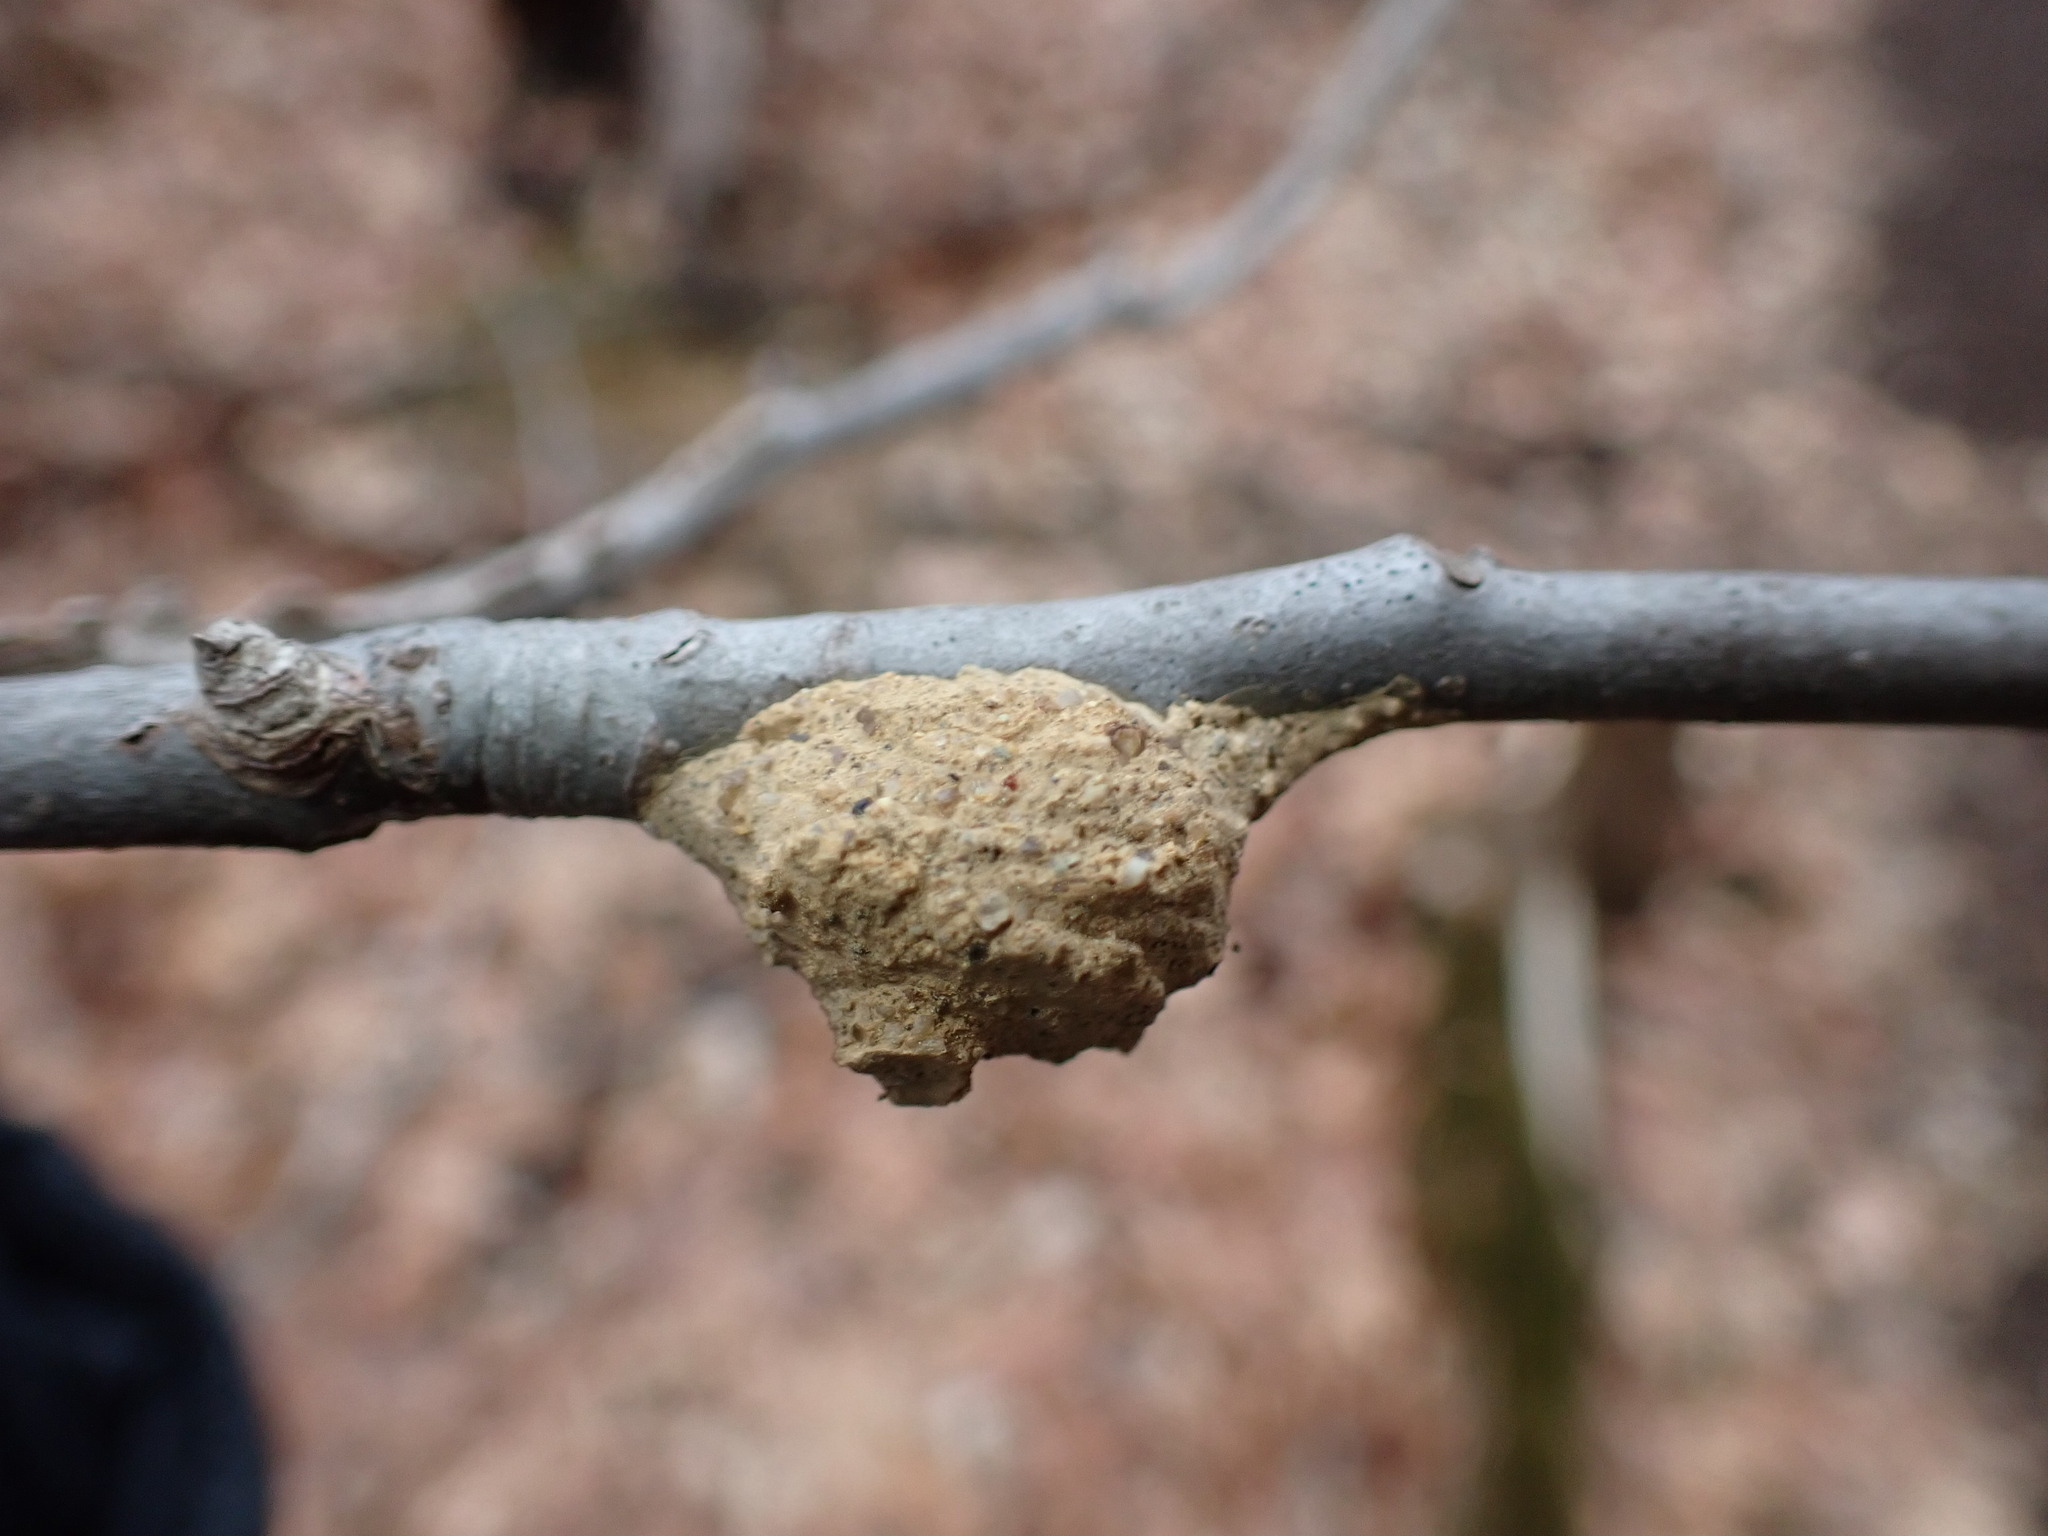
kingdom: Animalia
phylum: Arthropoda
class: Insecta
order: Hymenoptera
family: Eumenidae
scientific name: Eumenidae
